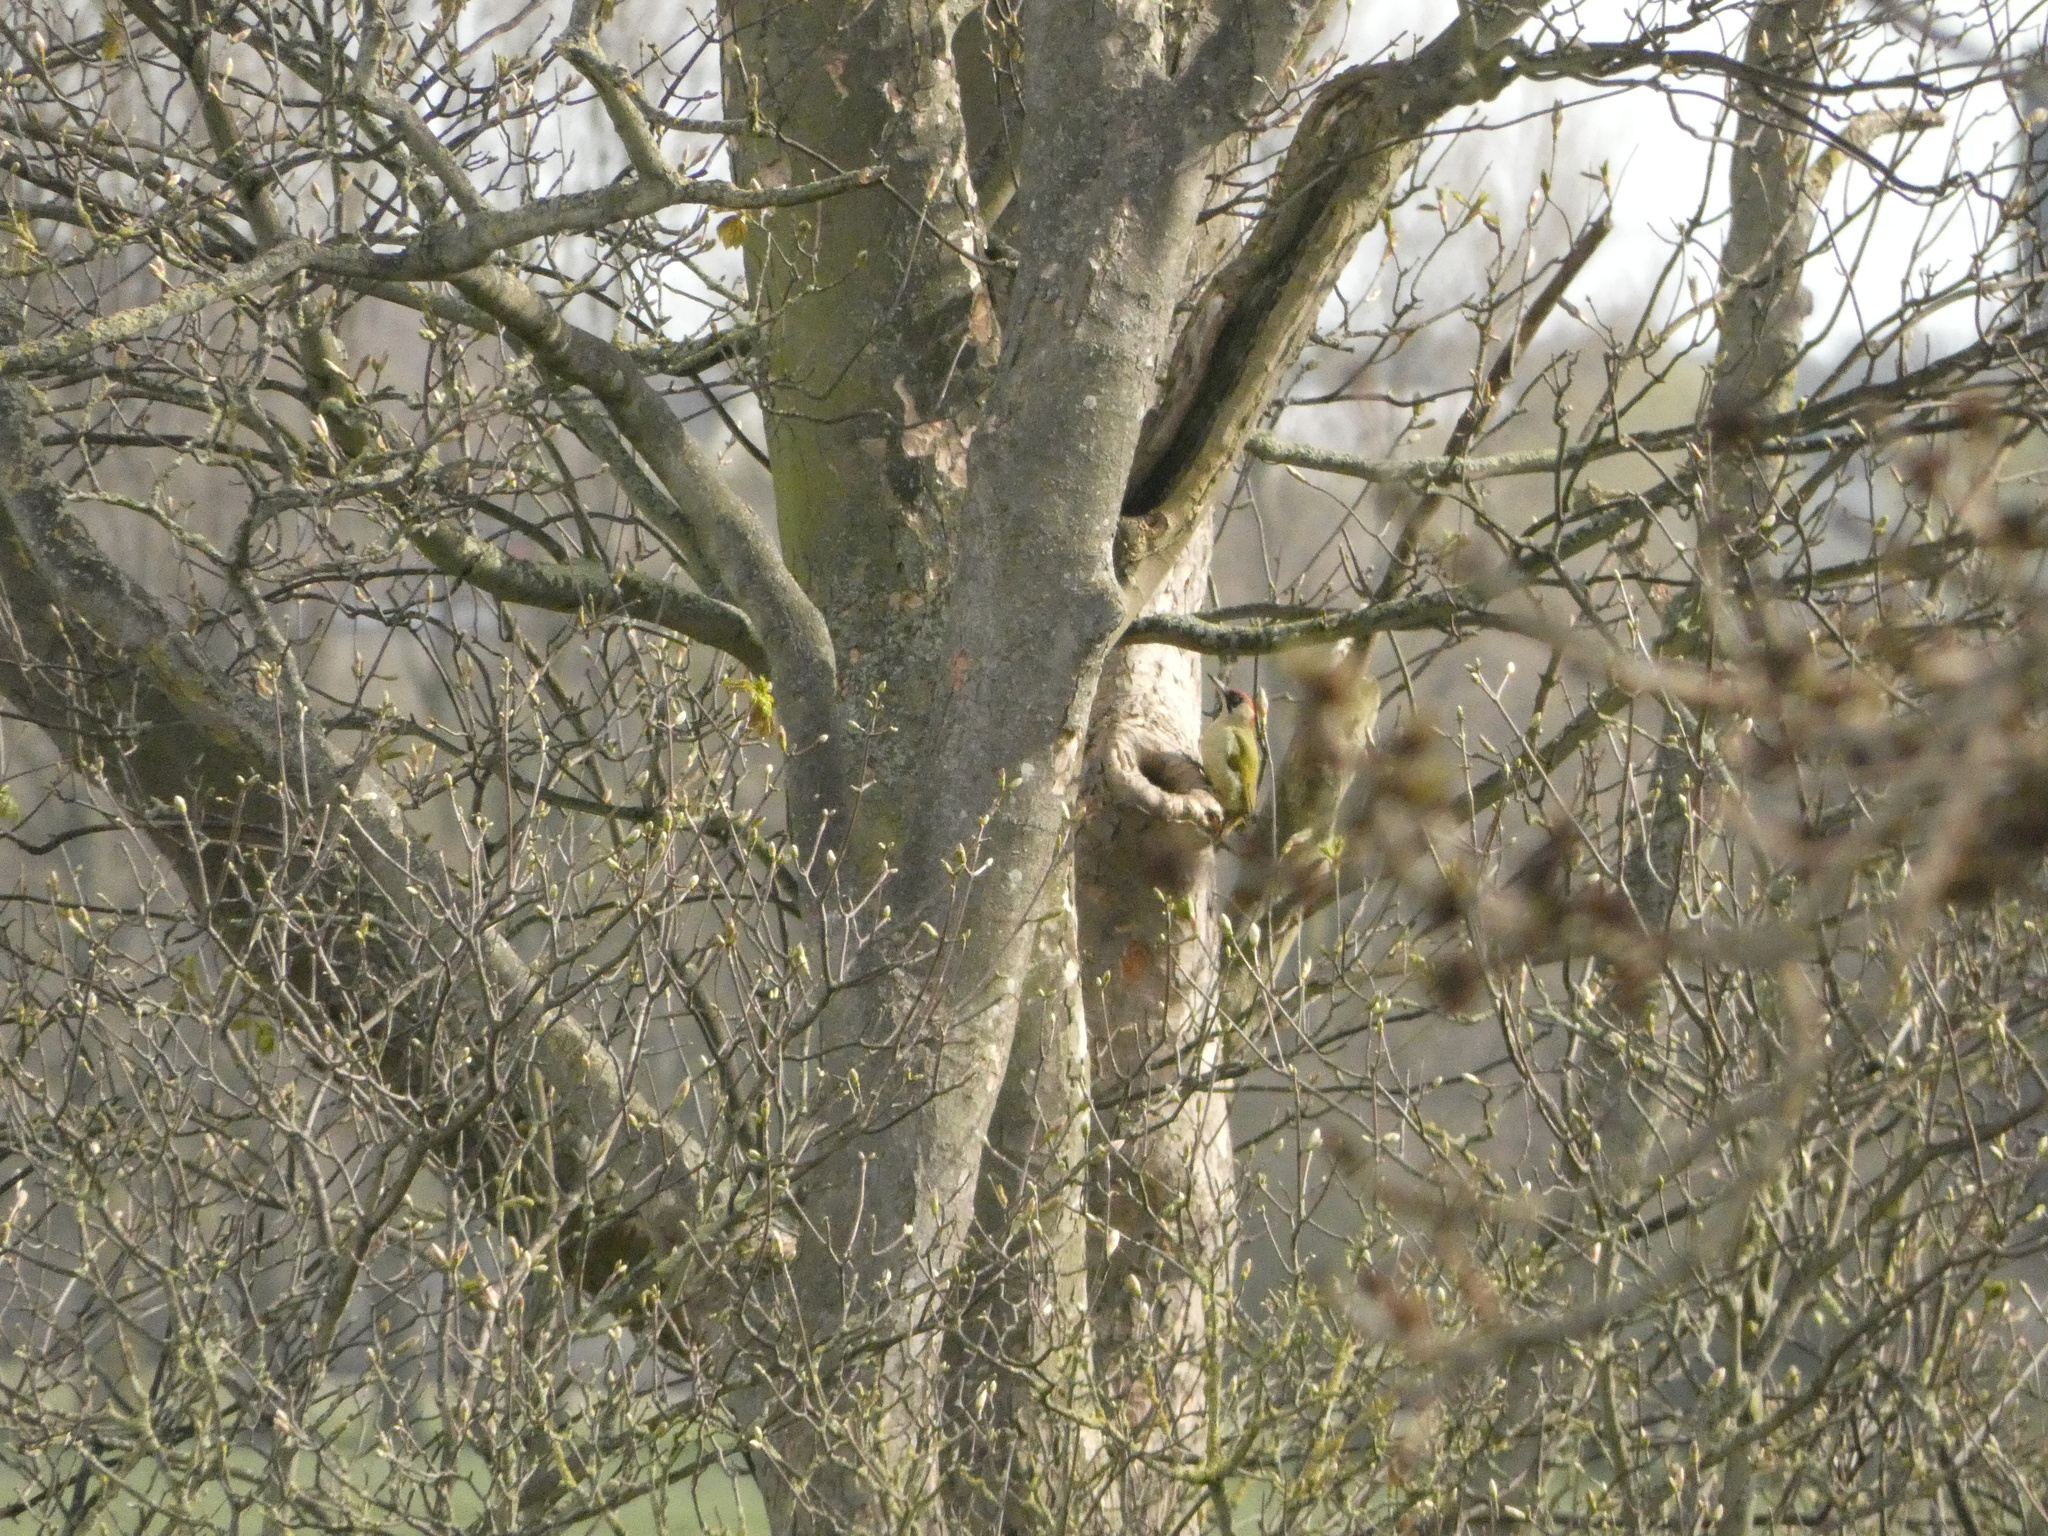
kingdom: Animalia
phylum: Chordata
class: Aves
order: Piciformes
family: Picidae
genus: Picus
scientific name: Picus viridis
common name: European green woodpecker
